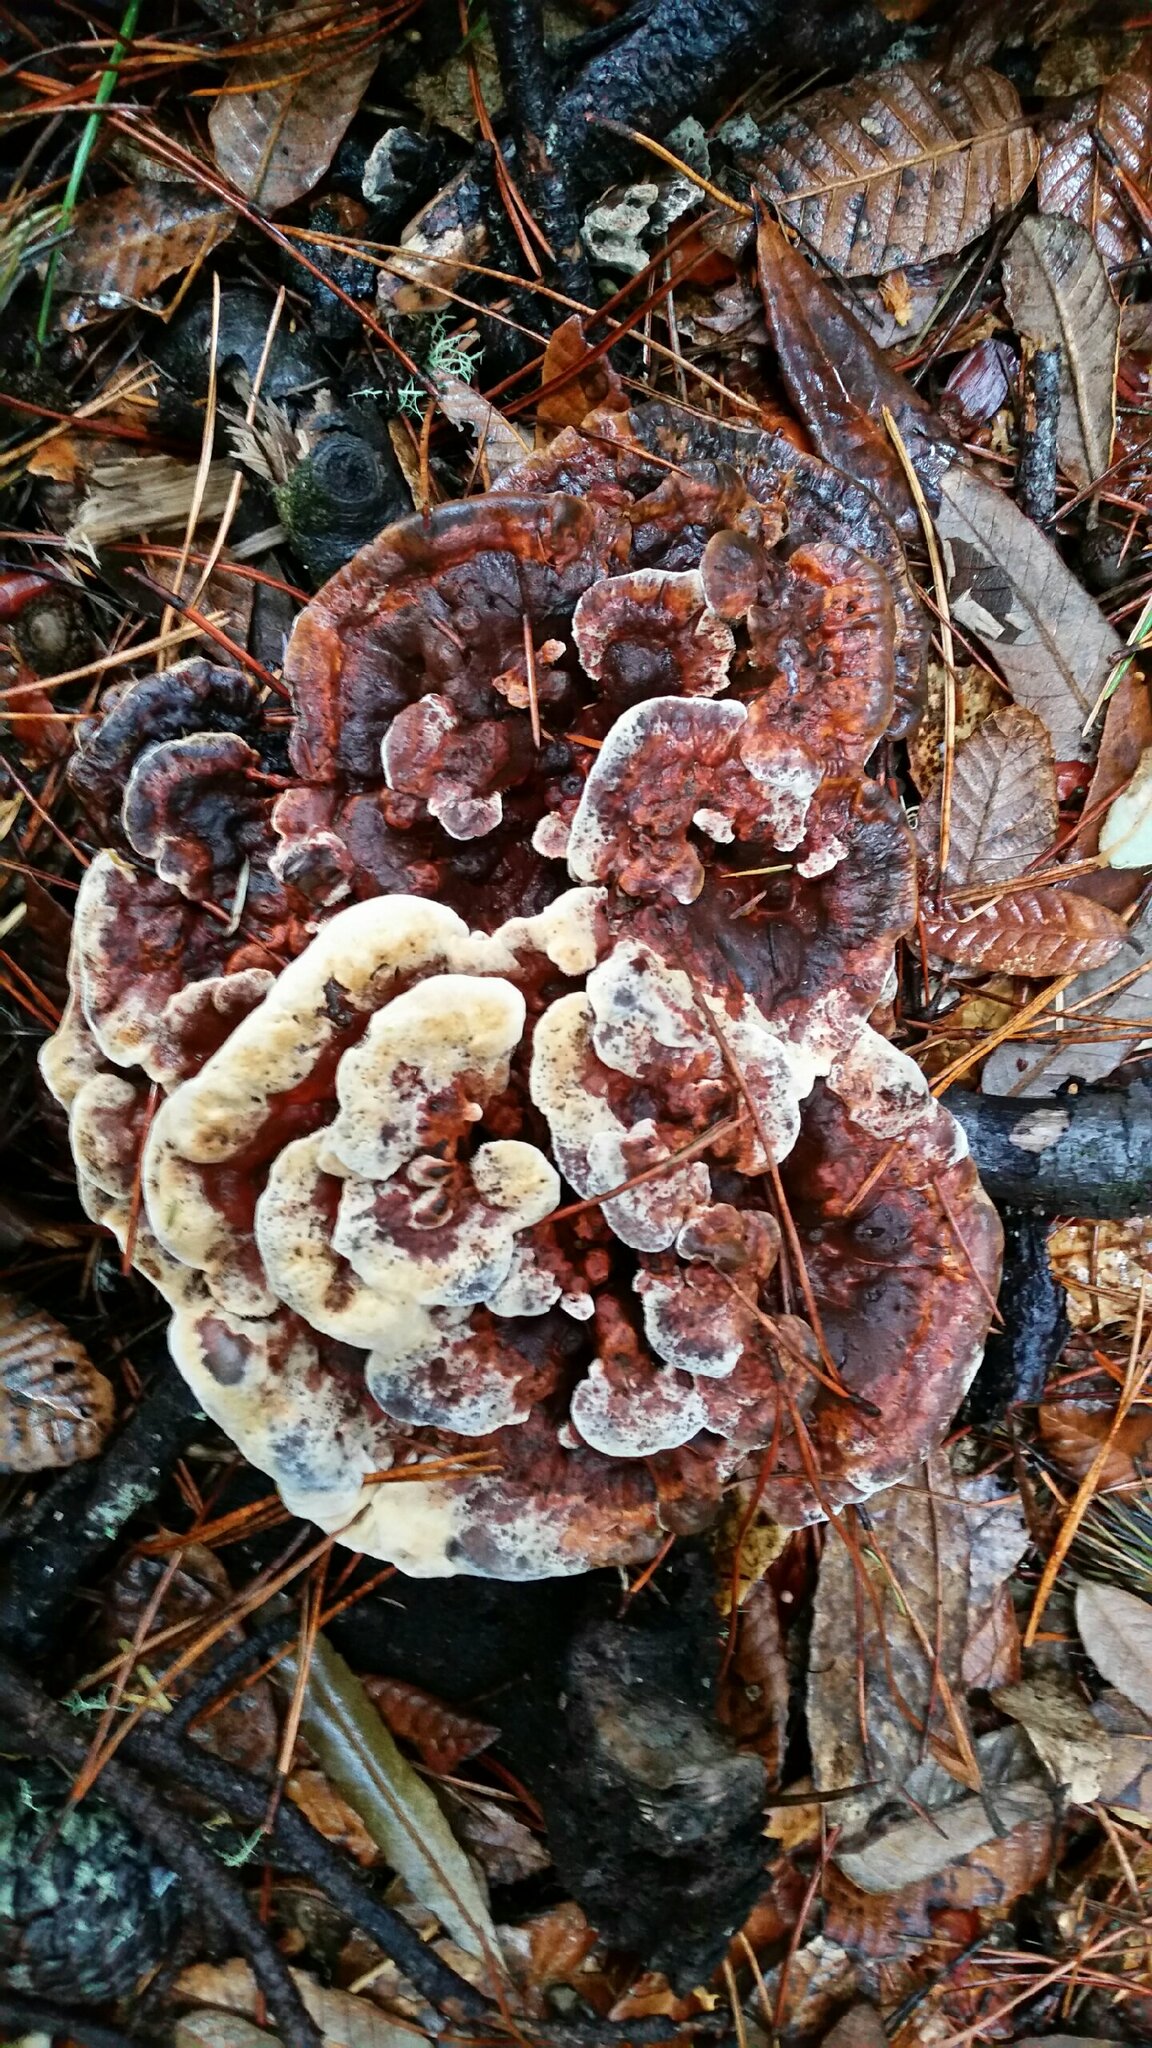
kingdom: Fungi
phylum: Basidiomycota
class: Agaricomycetes
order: Polyporales
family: Laetiporaceae
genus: Phaeolus
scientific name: Phaeolus schweinitzii
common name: Dyer's mazegill
